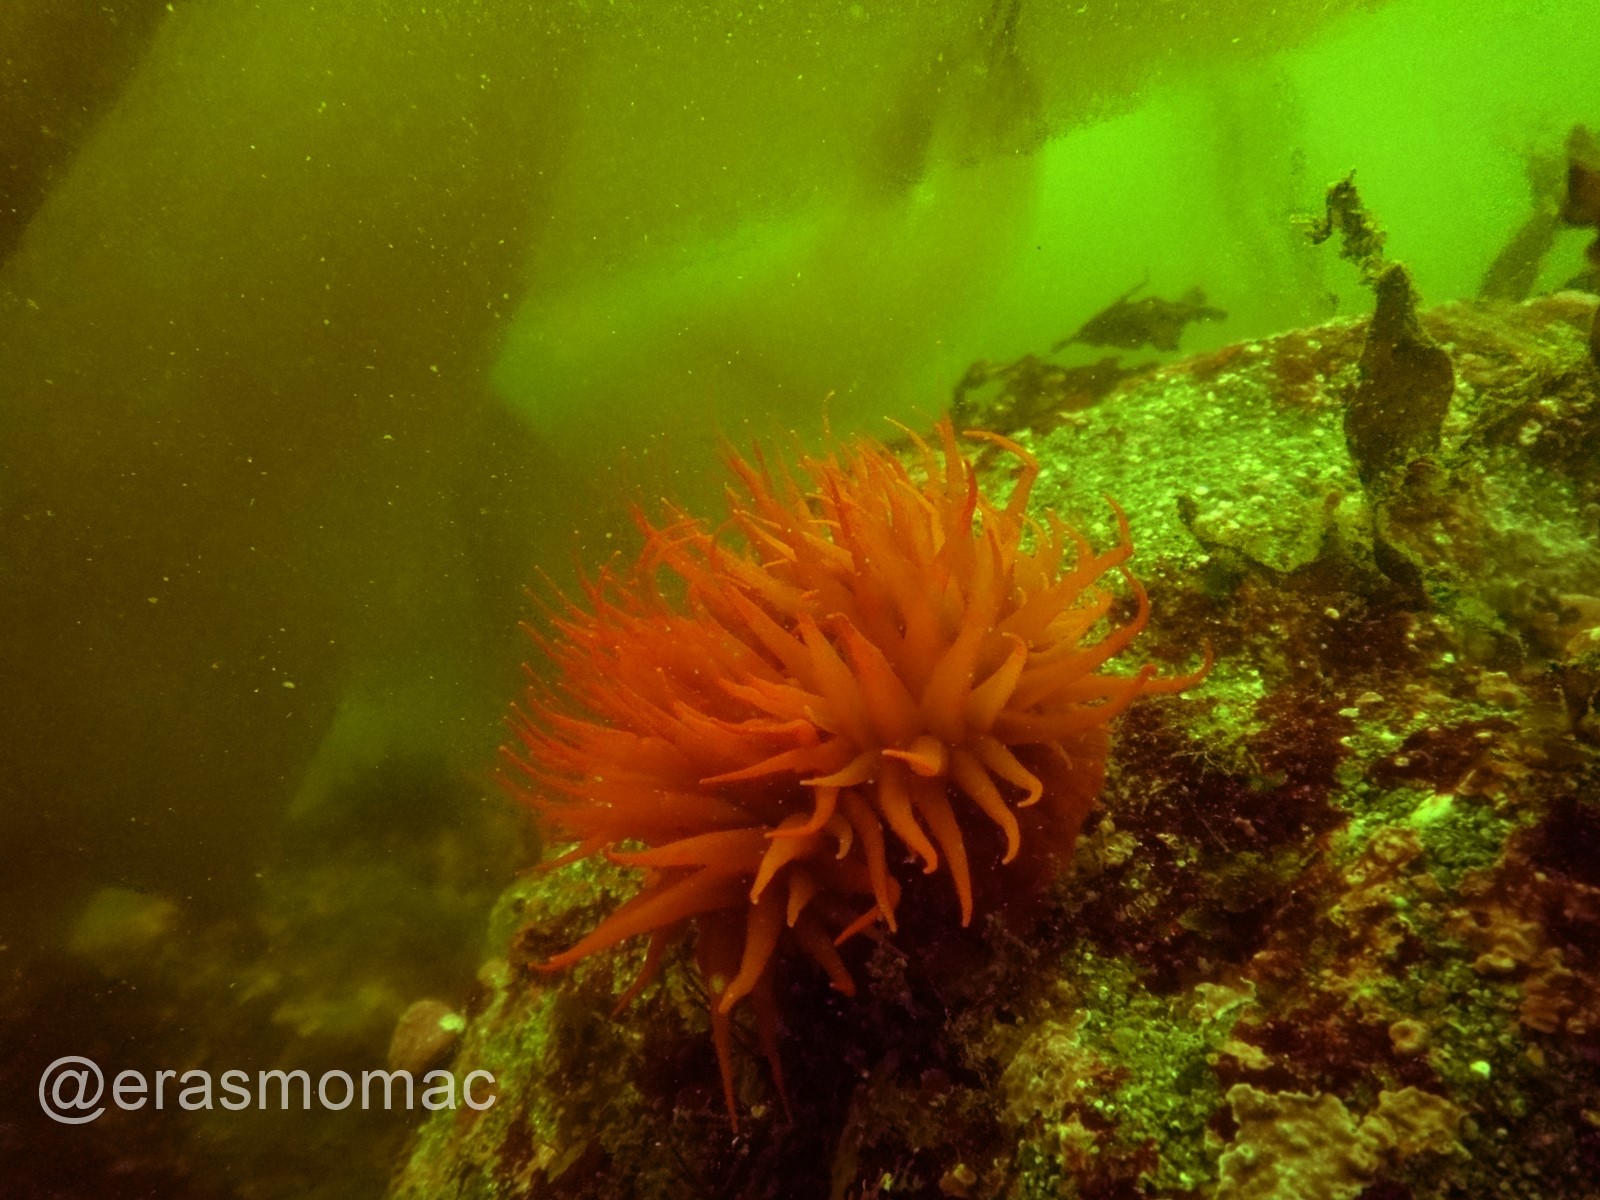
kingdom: Animalia
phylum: Cnidaria
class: Anthozoa
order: Actiniaria
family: Actiniidae
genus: Anemonia
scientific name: Anemonia alicemartinae
